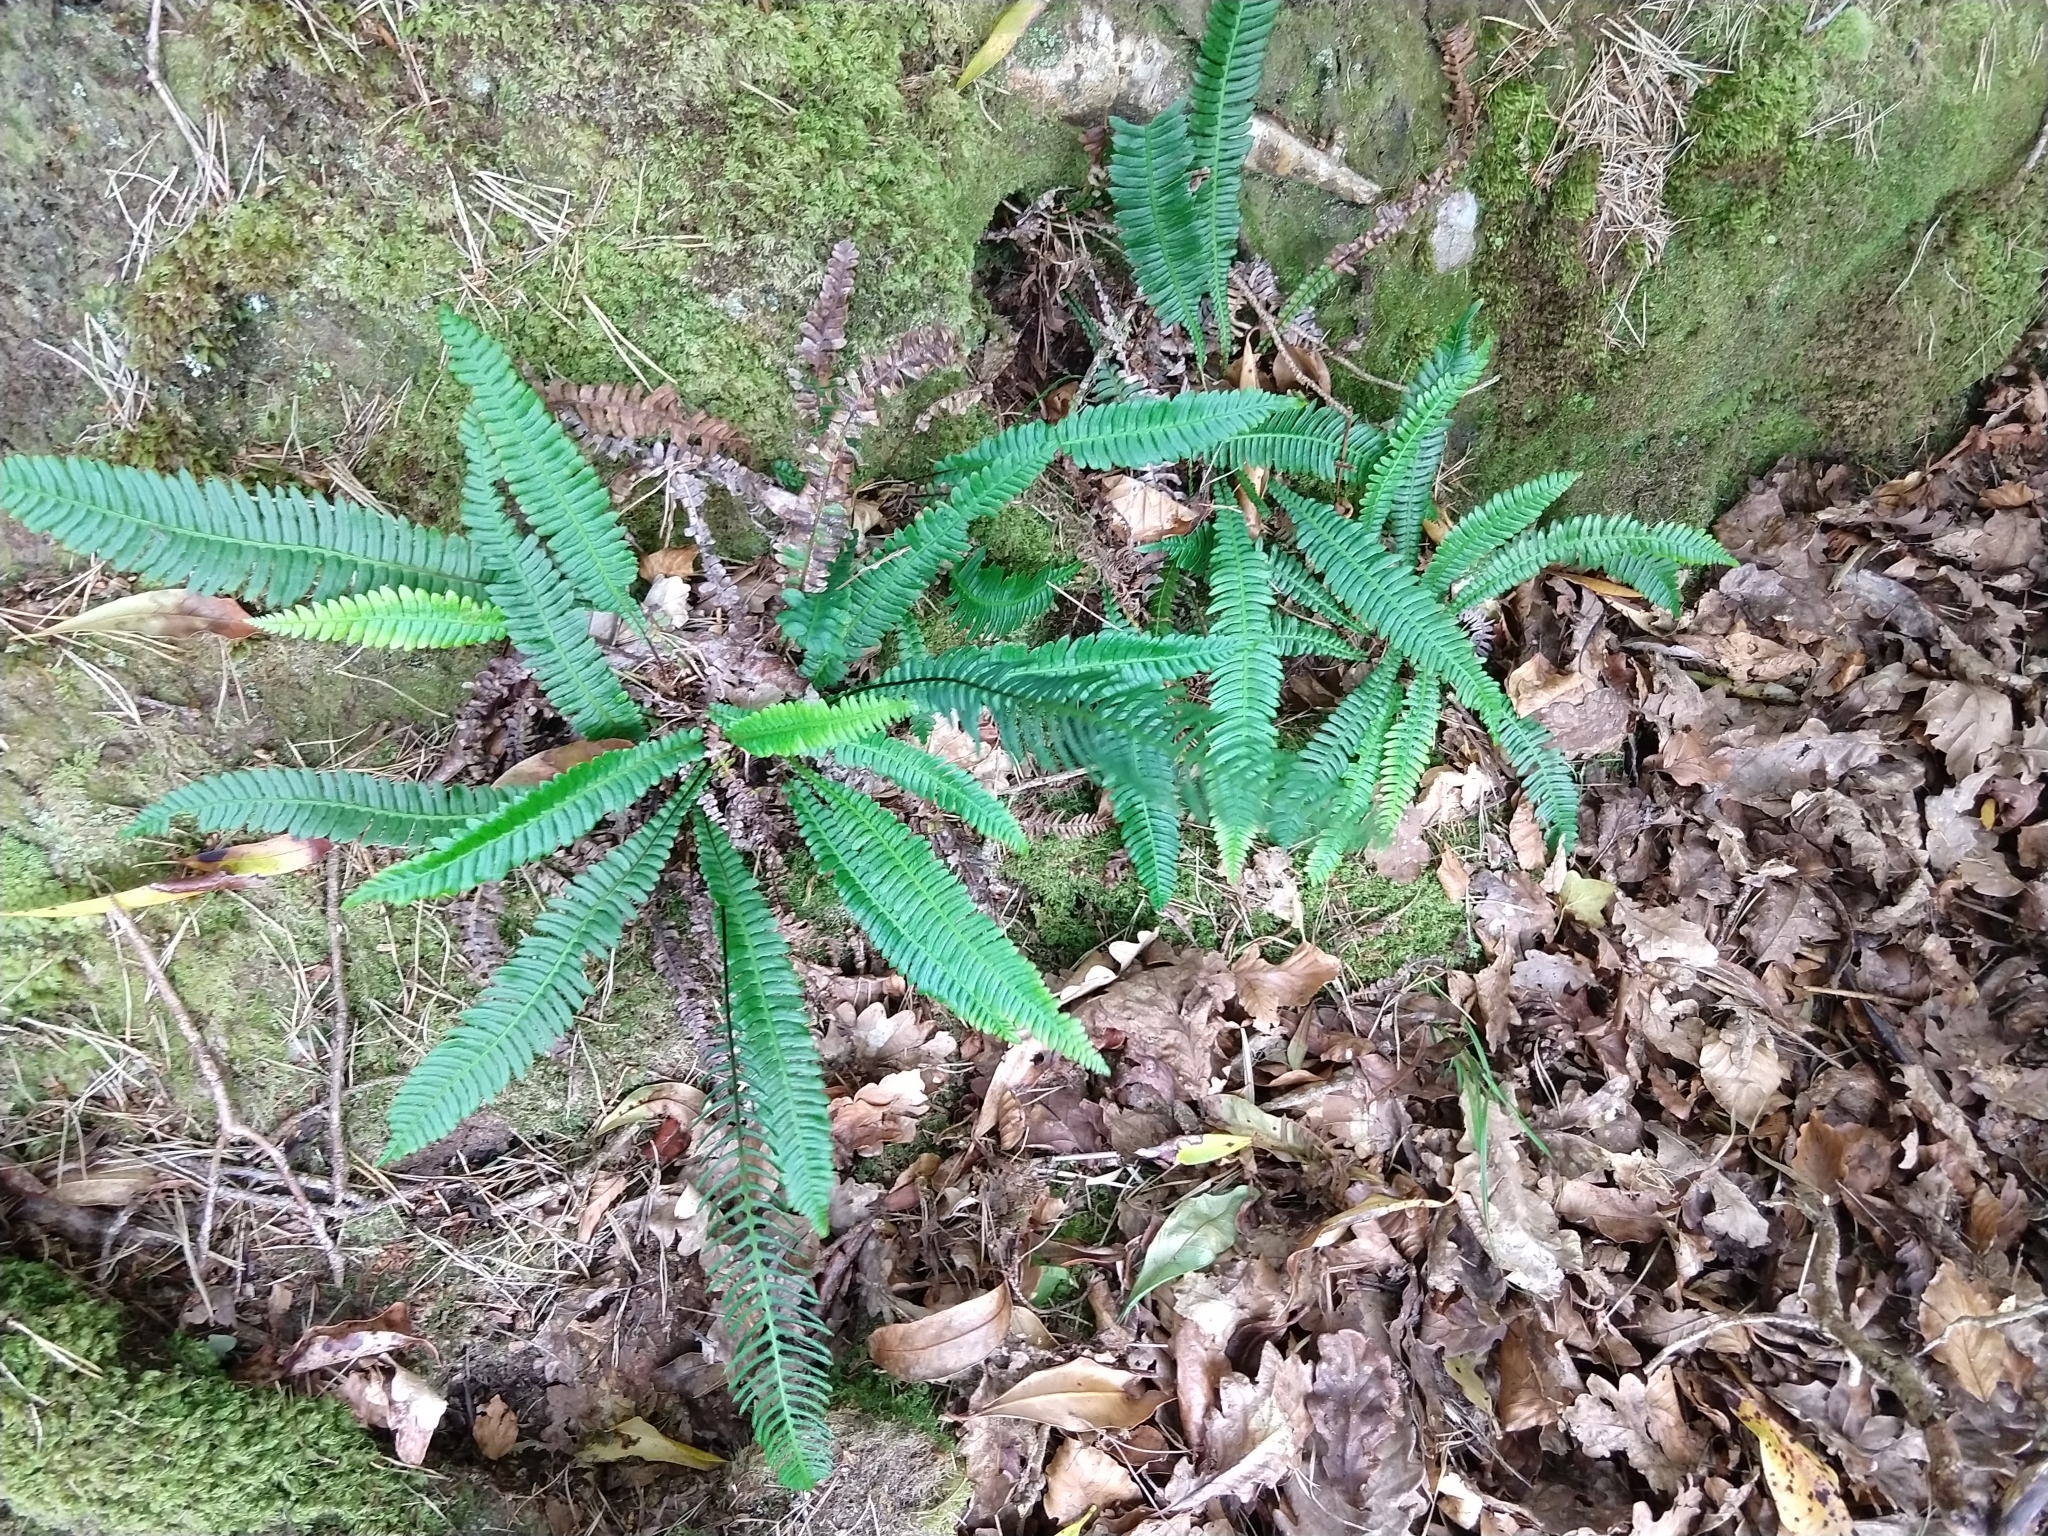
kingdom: Plantae
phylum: Tracheophyta
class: Polypodiopsida
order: Polypodiales
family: Blechnaceae
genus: Struthiopteris
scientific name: Struthiopteris spicant
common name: Deer fern
